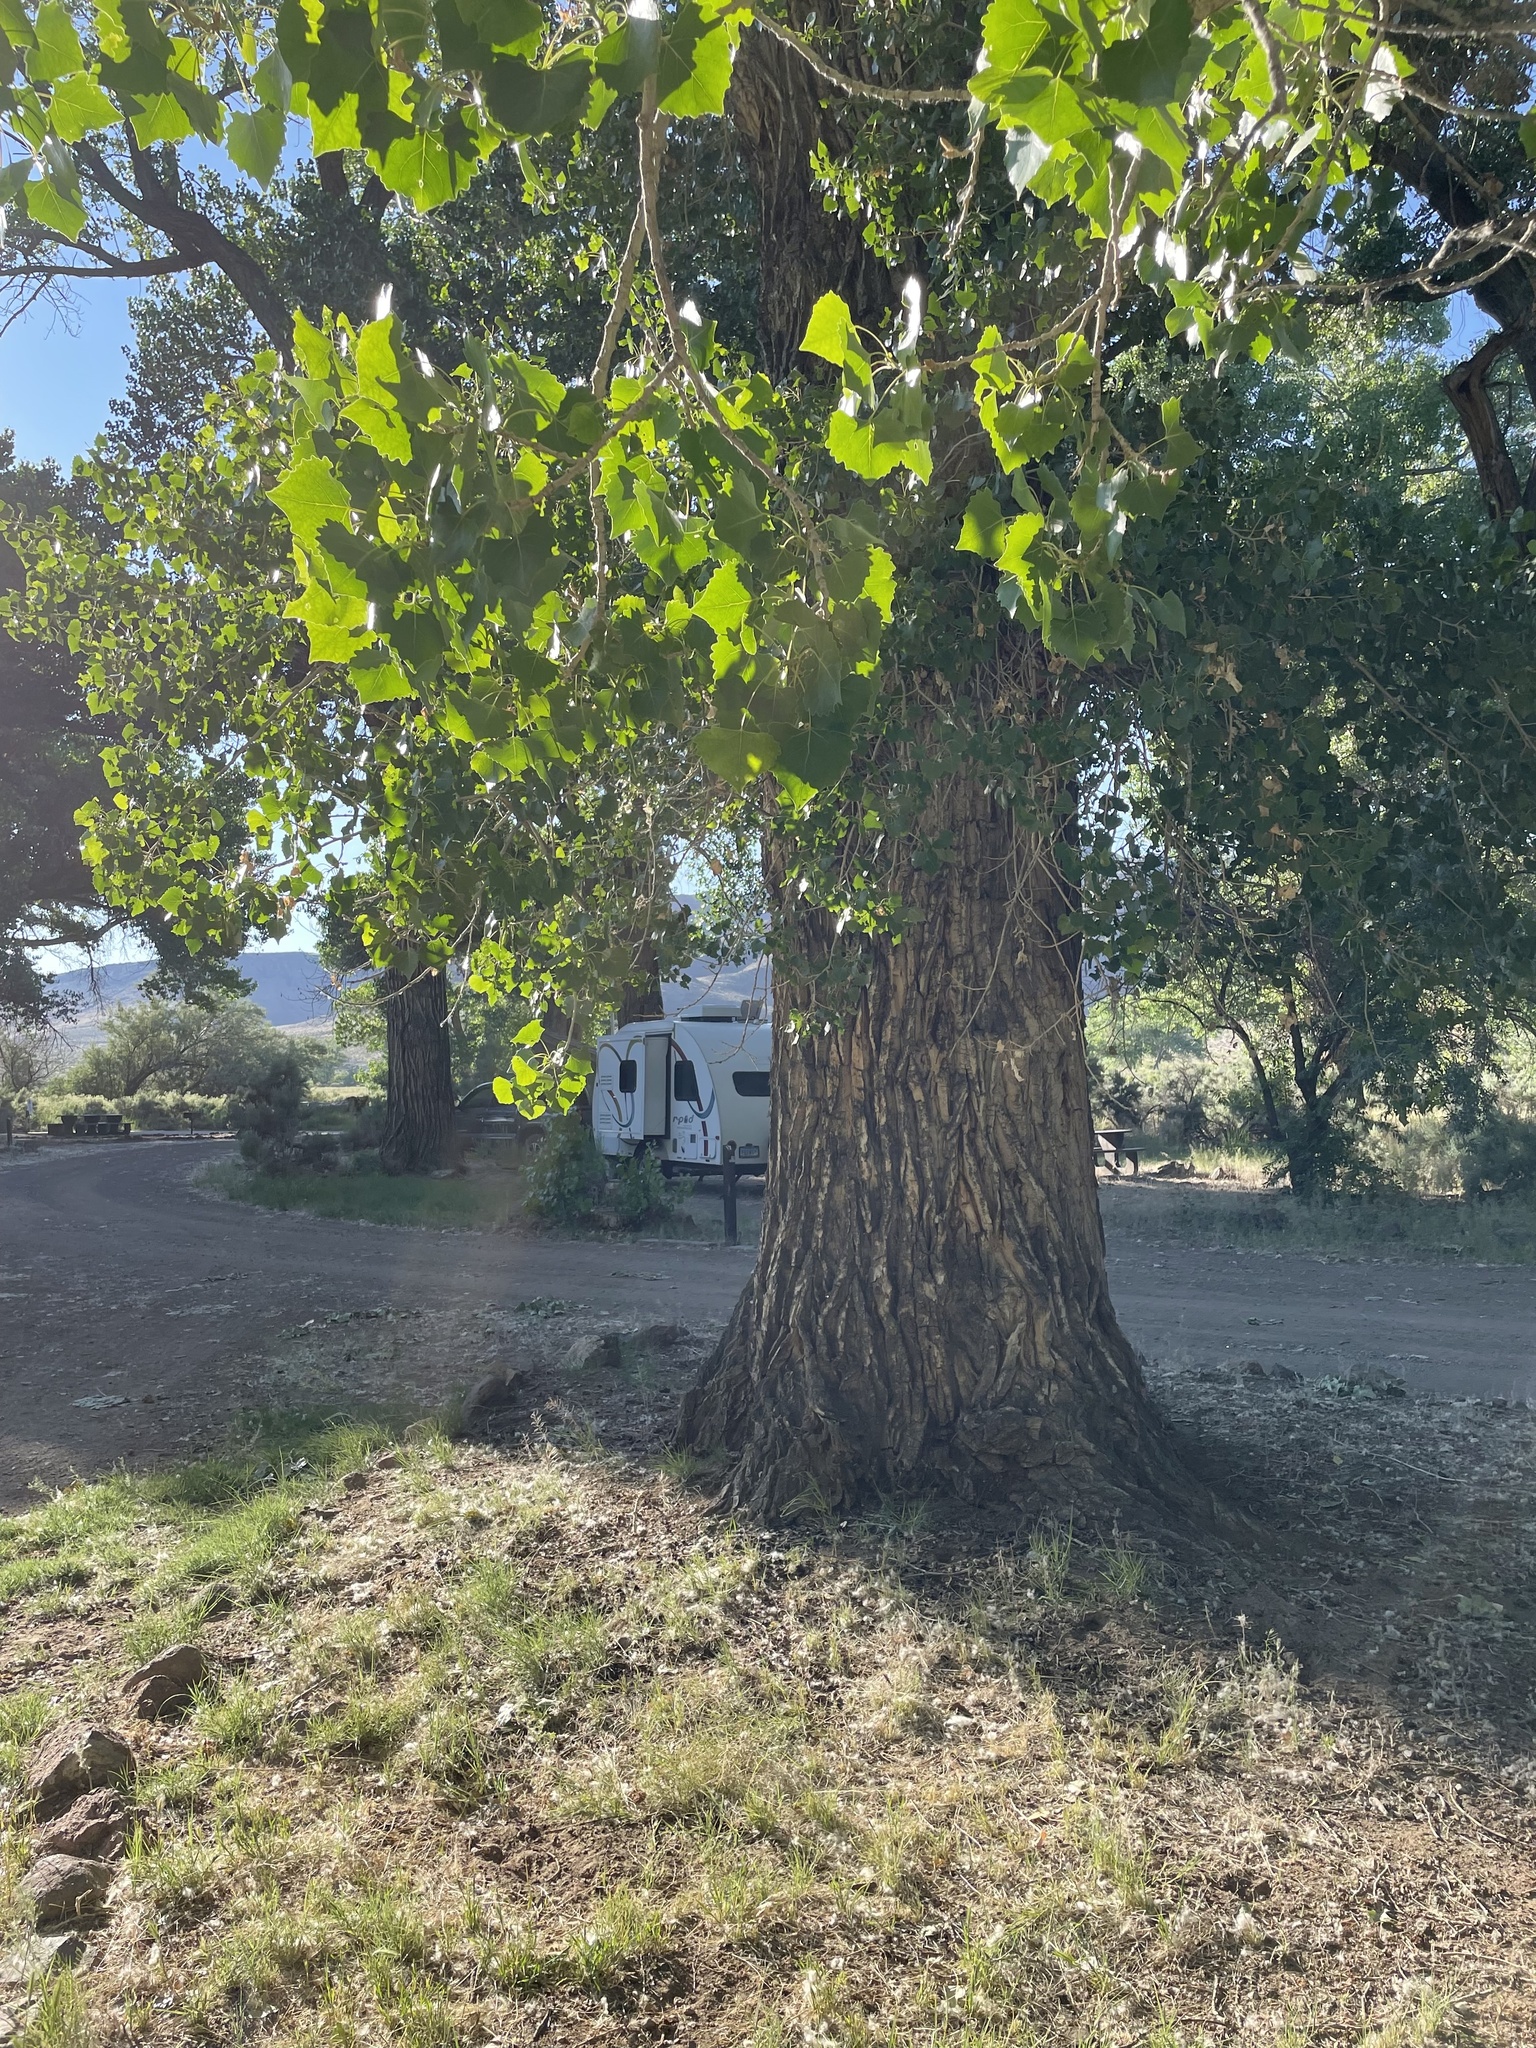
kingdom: Plantae
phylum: Tracheophyta
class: Magnoliopsida
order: Malpighiales
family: Salicaceae
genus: Populus
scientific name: Populus fremontii
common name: Fremont's cottonwood
